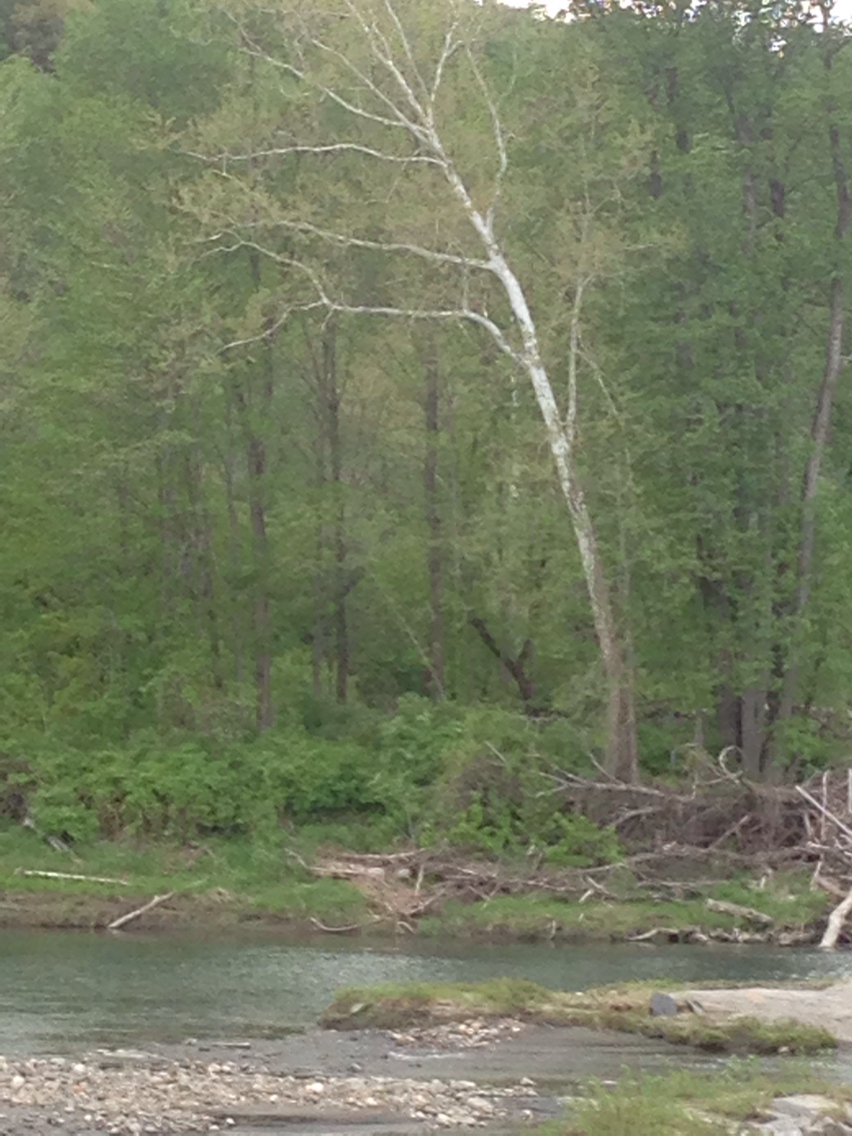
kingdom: Plantae
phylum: Tracheophyta
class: Magnoliopsida
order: Proteales
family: Platanaceae
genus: Platanus
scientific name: Platanus occidentalis
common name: American sycamore
